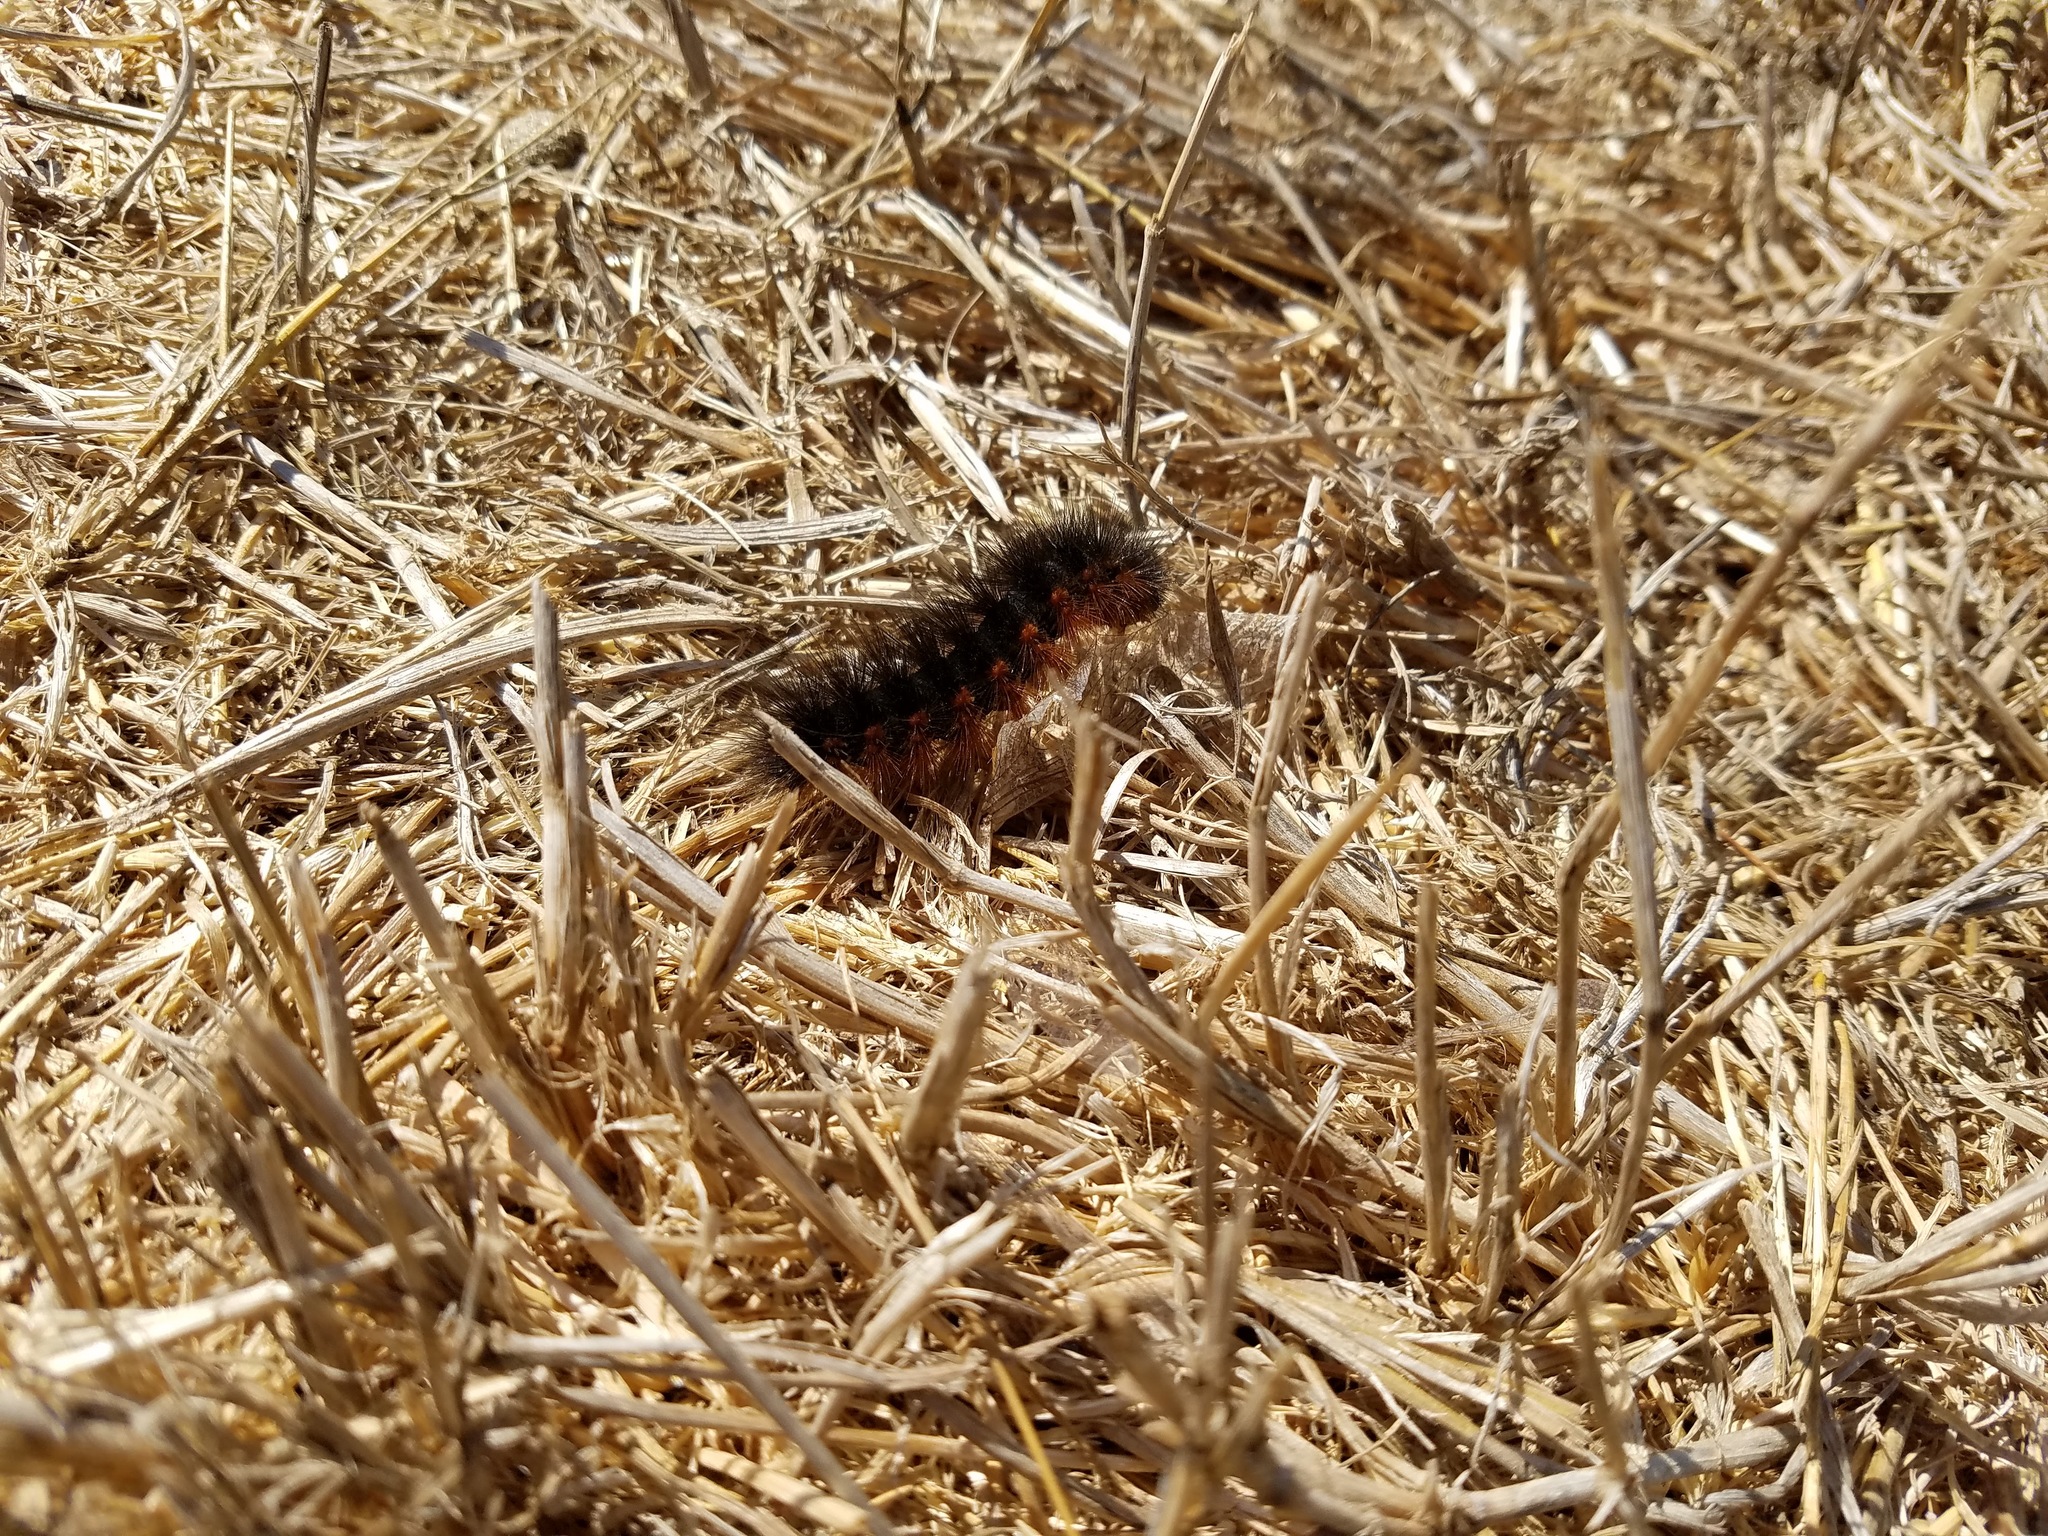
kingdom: Animalia
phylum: Arthropoda
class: Insecta
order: Lepidoptera
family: Erebidae
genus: Estigmene
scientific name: Estigmene acrea
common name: Salt marsh moth
